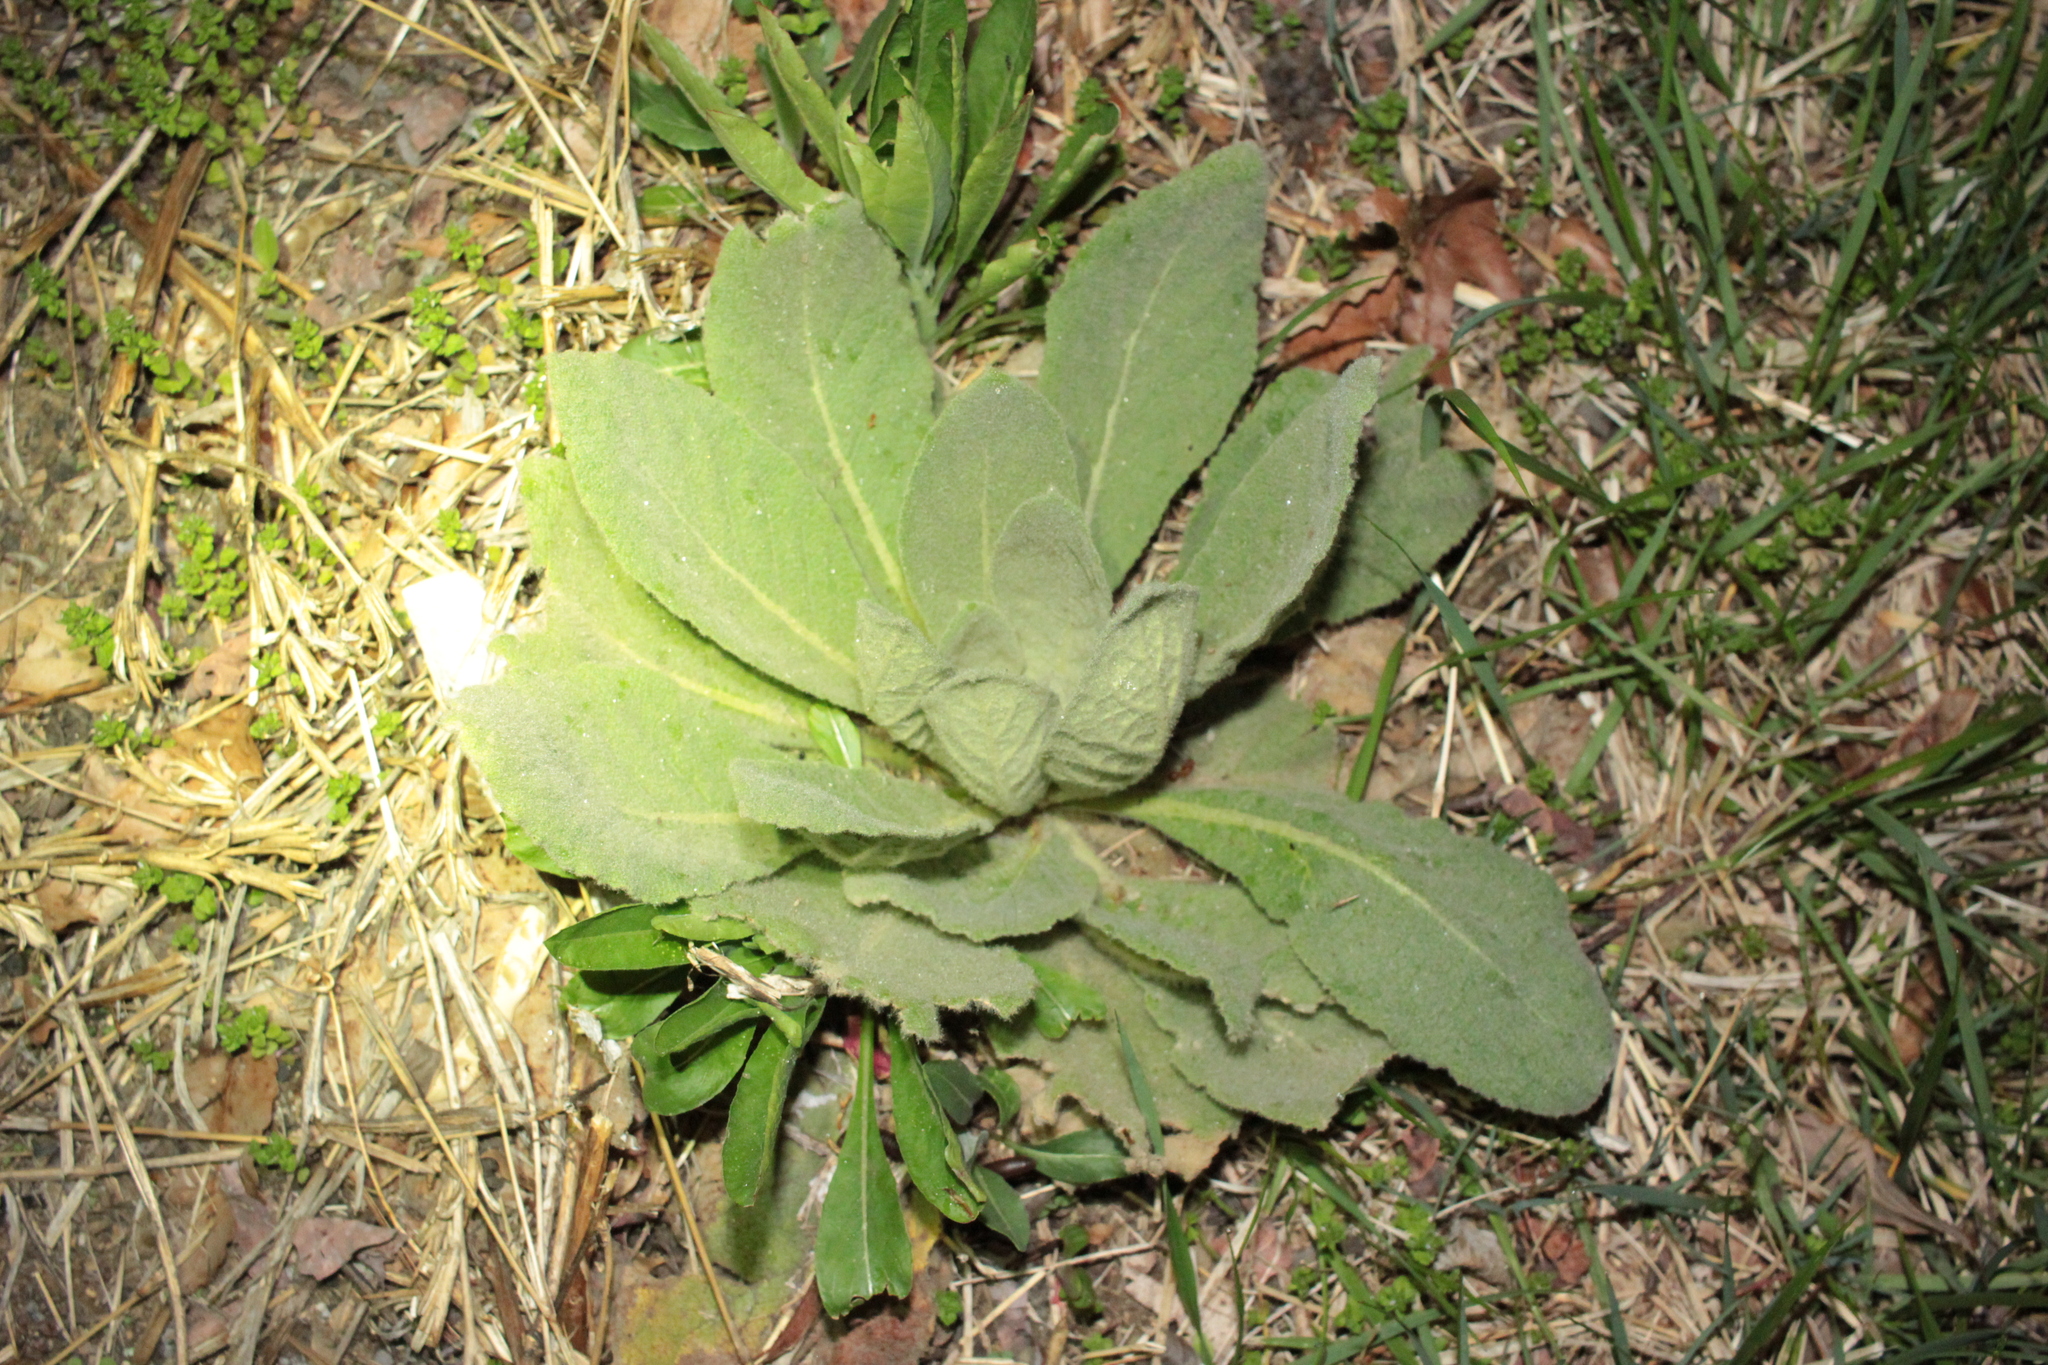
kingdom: Plantae
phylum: Tracheophyta
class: Magnoliopsida
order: Lamiales
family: Scrophulariaceae
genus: Verbascum
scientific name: Verbascum thapsus
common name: Common mullein
